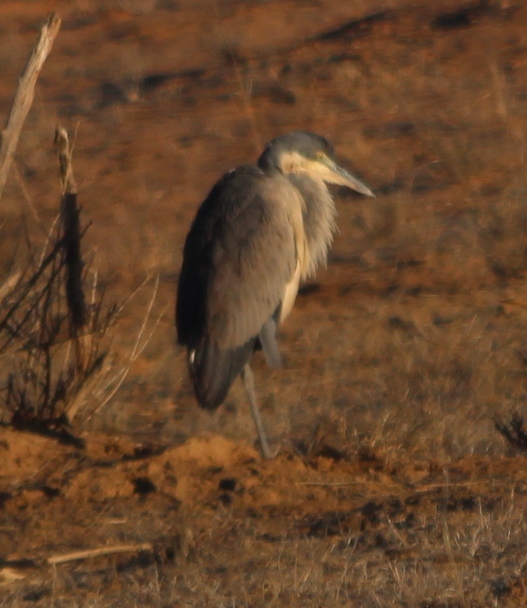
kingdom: Animalia
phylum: Chordata
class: Aves
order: Pelecaniformes
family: Ardeidae
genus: Ardea
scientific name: Ardea melanocephala
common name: Black-headed heron
